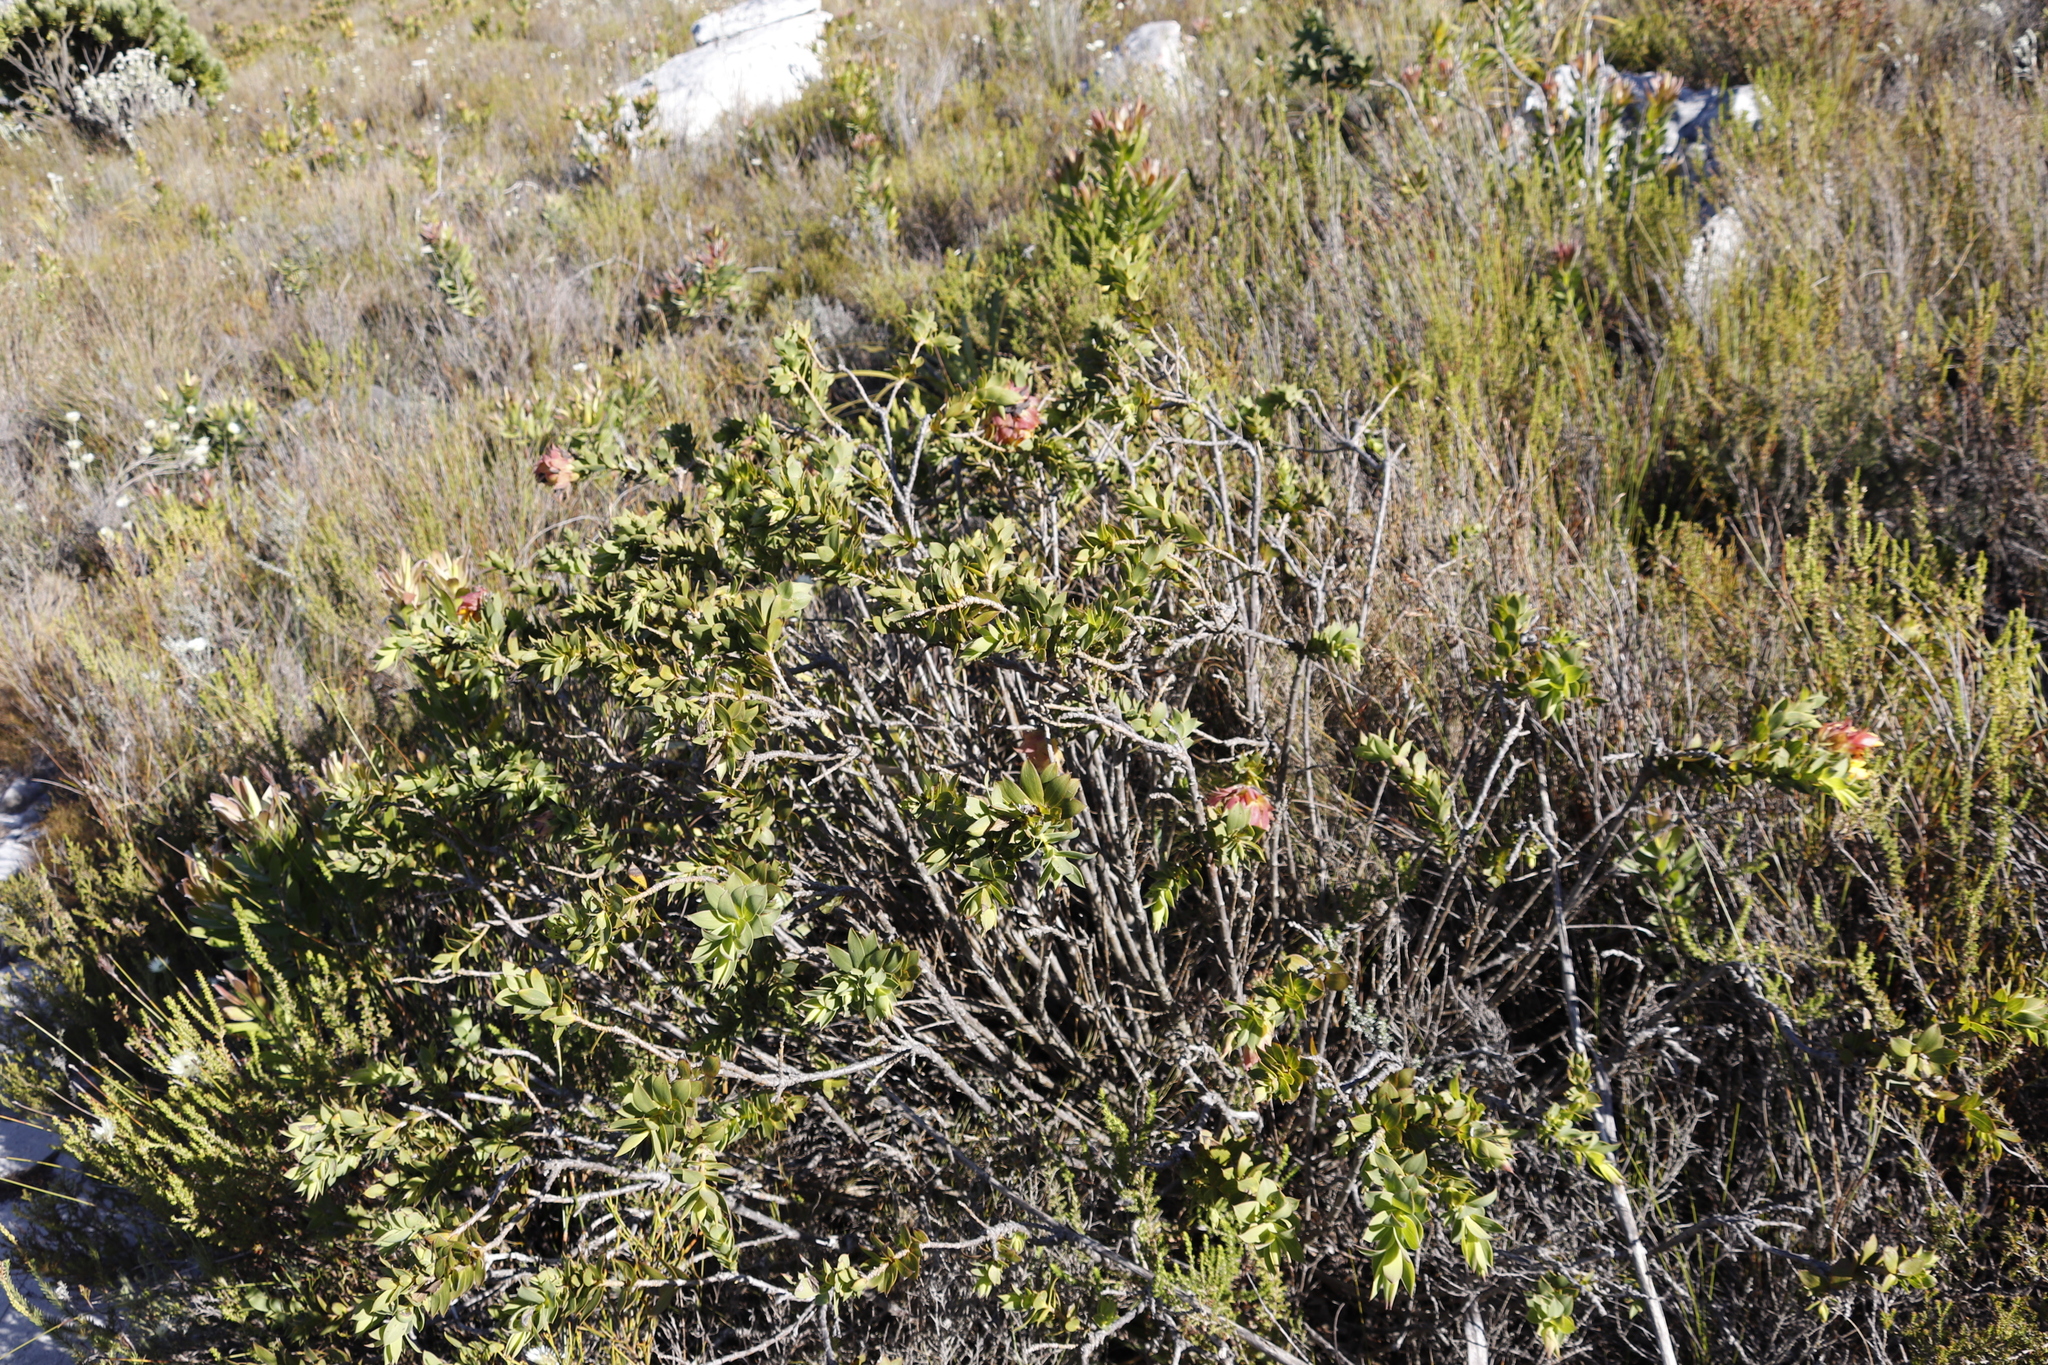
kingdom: Plantae
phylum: Tracheophyta
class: Magnoliopsida
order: Fabales
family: Fabaceae
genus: Liparia
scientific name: Liparia splendens
